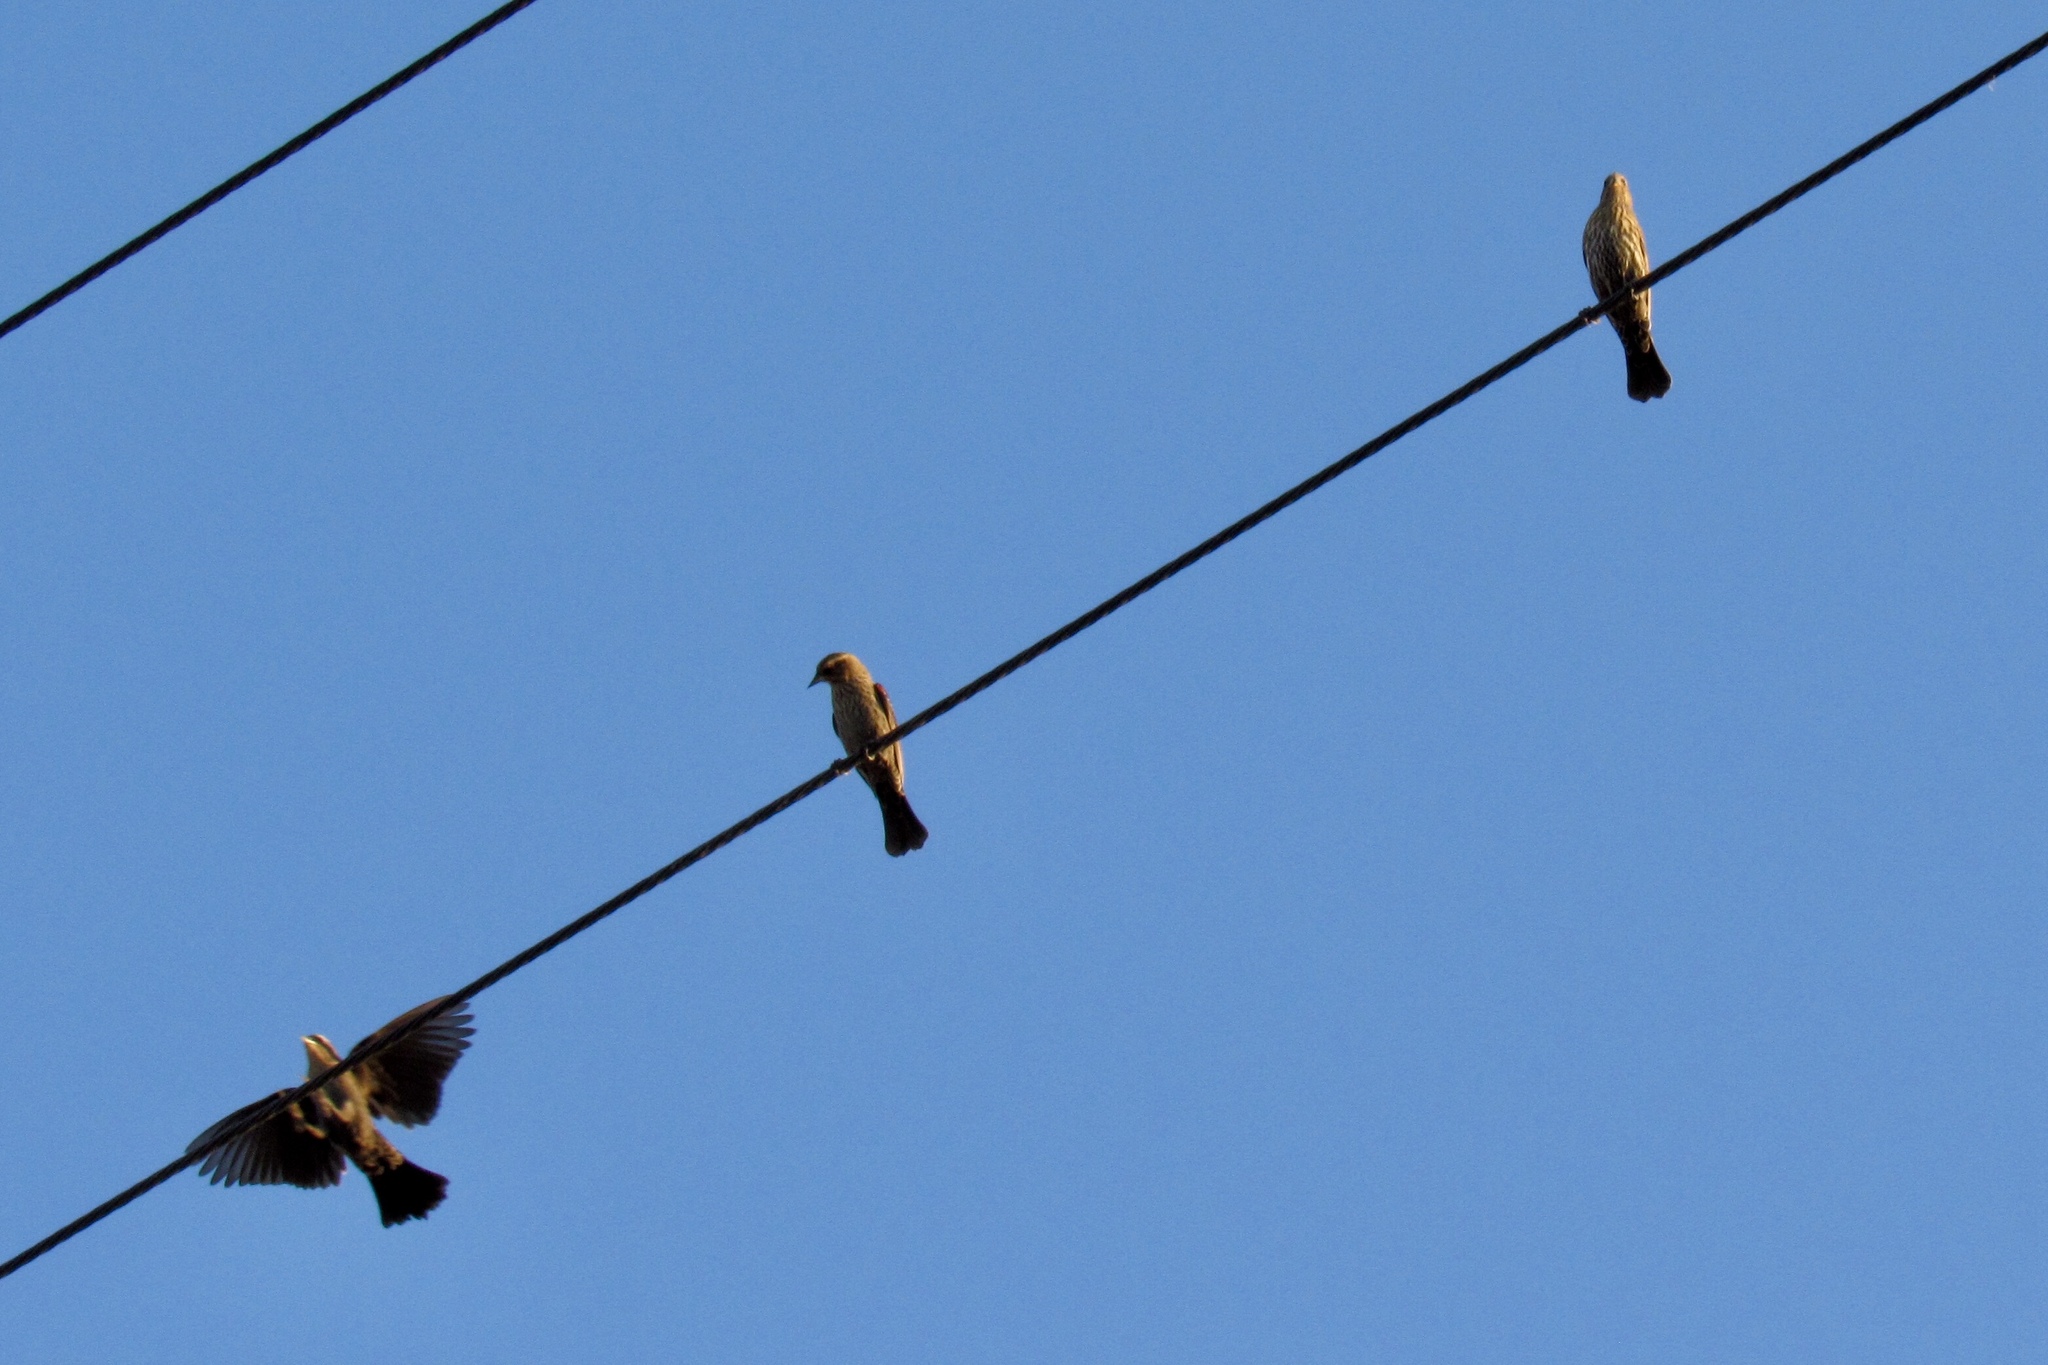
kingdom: Animalia
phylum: Chordata
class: Aves
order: Passeriformes
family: Fringillidae
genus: Haemorhous
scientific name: Haemorhous mexicanus
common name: House finch
